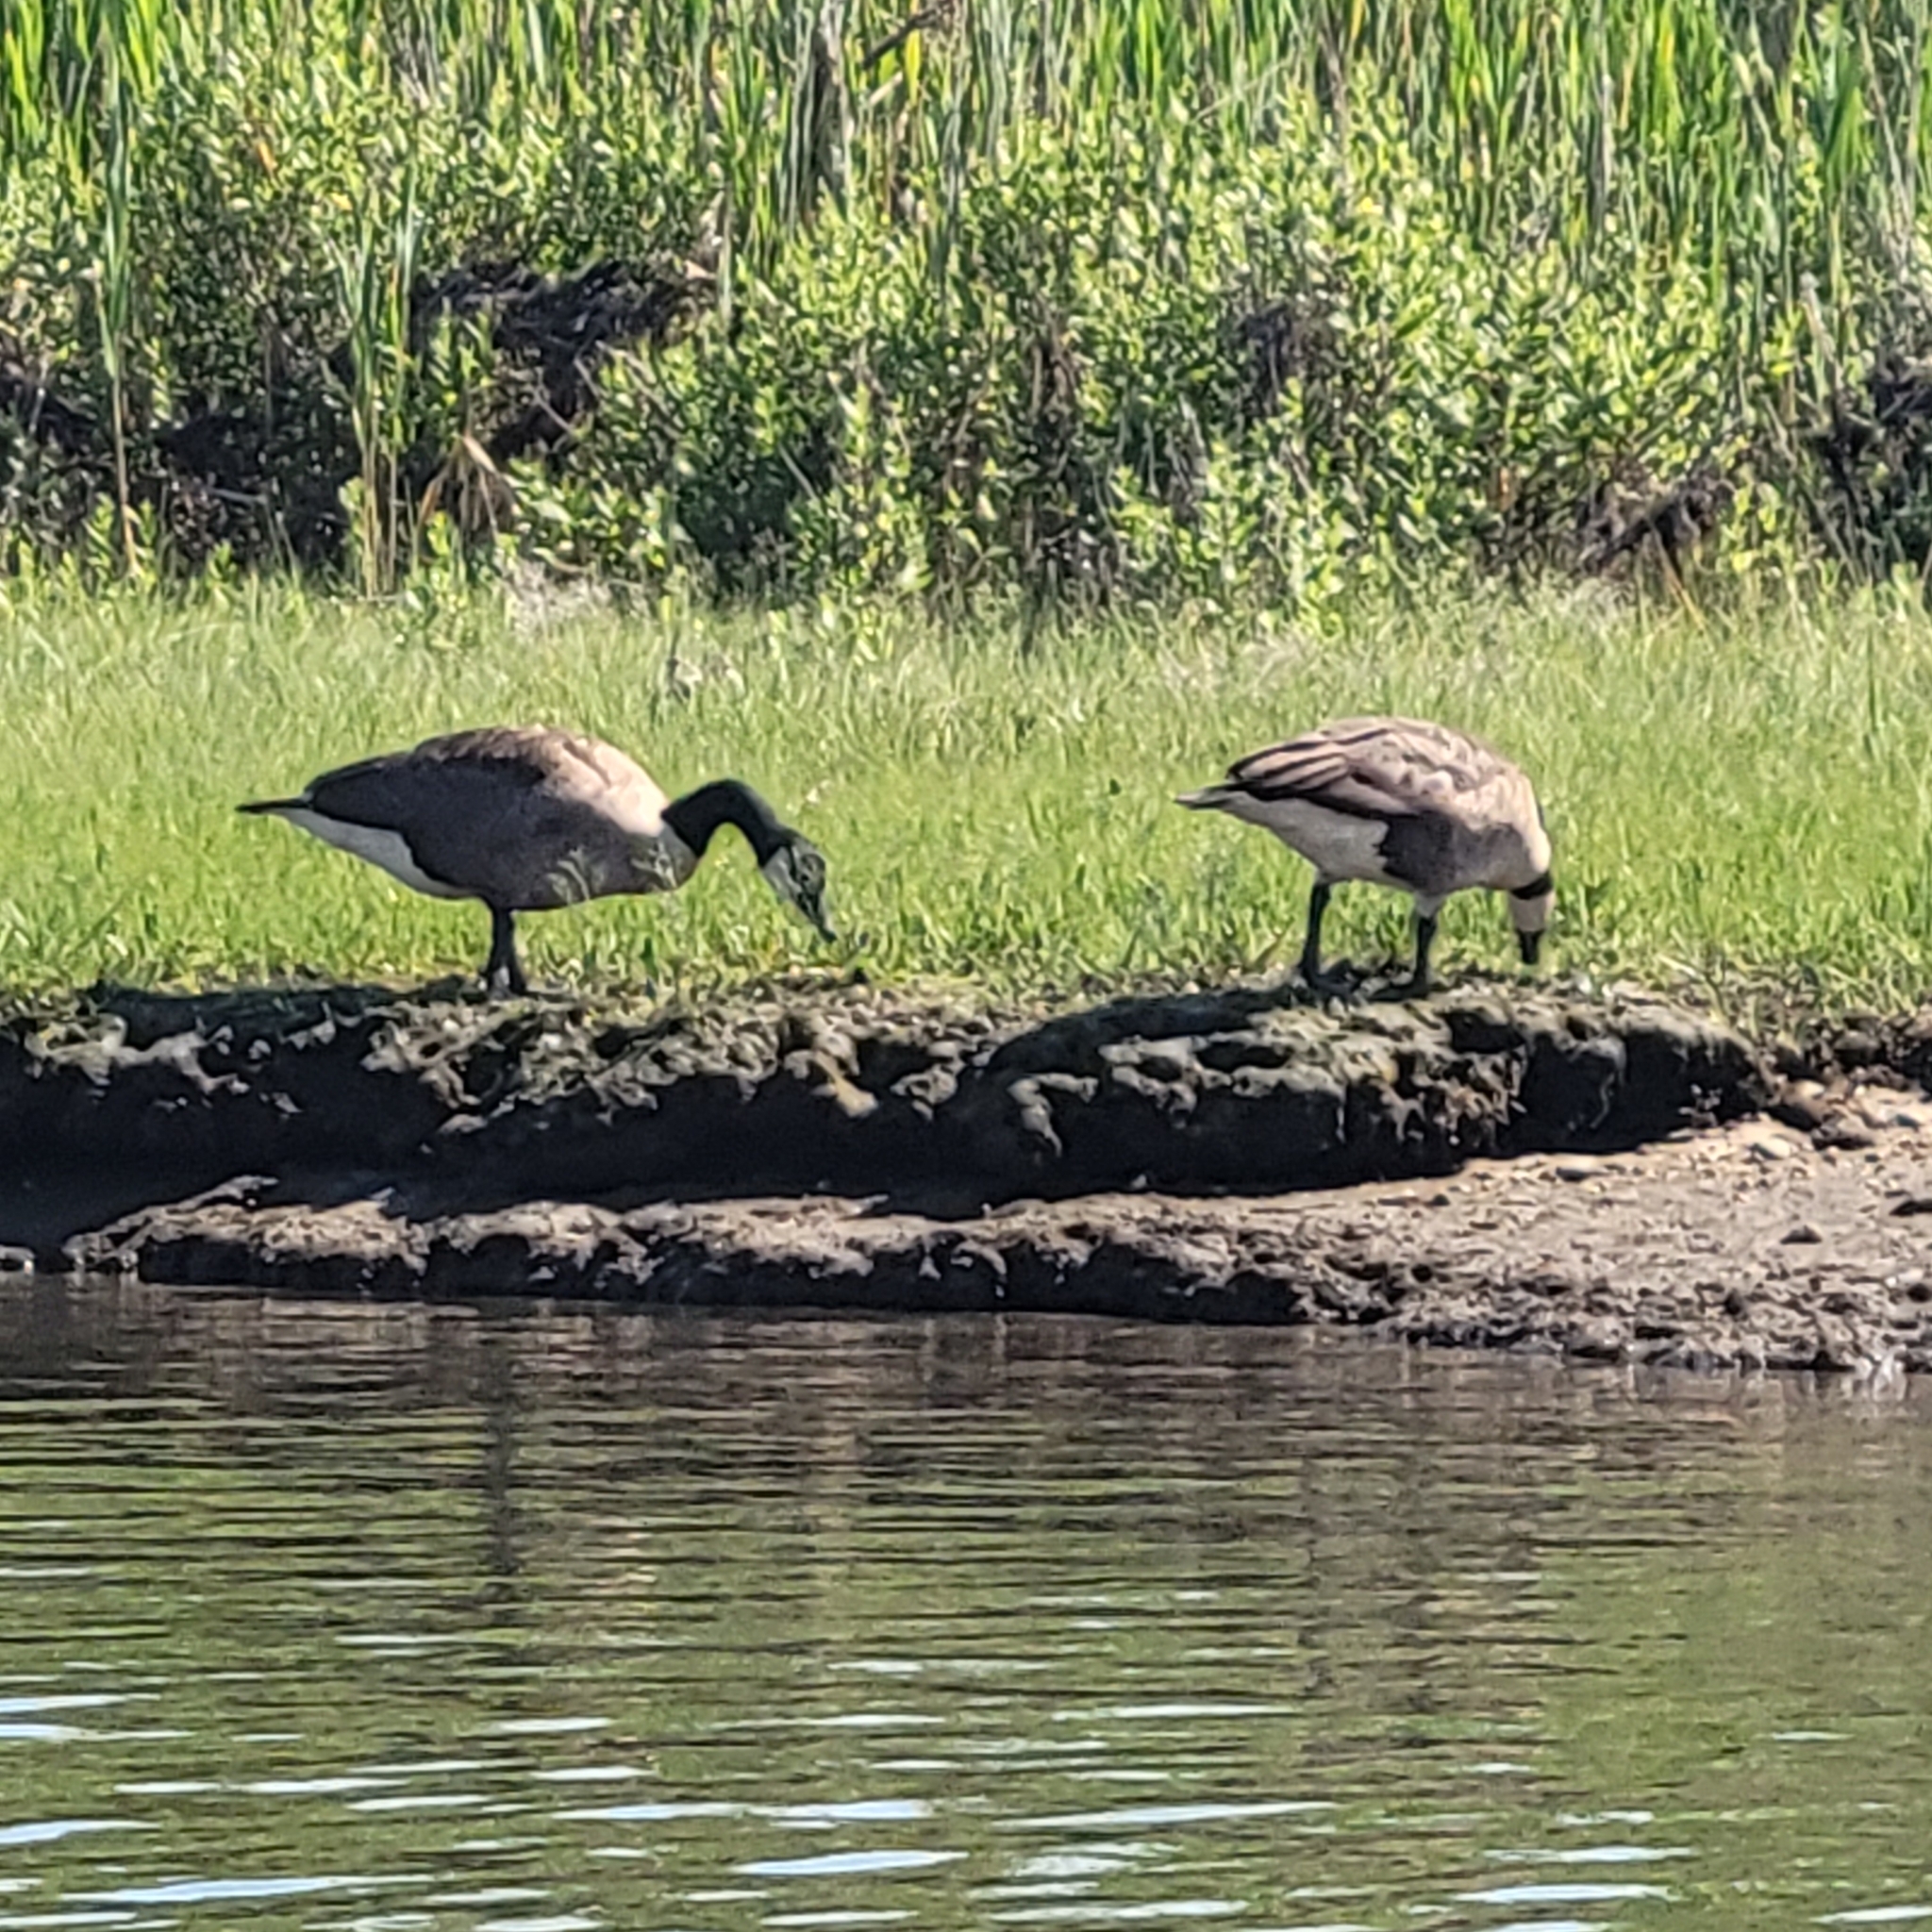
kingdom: Animalia
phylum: Chordata
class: Aves
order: Anseriformes
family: Anatidae
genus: Branta
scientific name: Branta canadensis
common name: Canada goose
